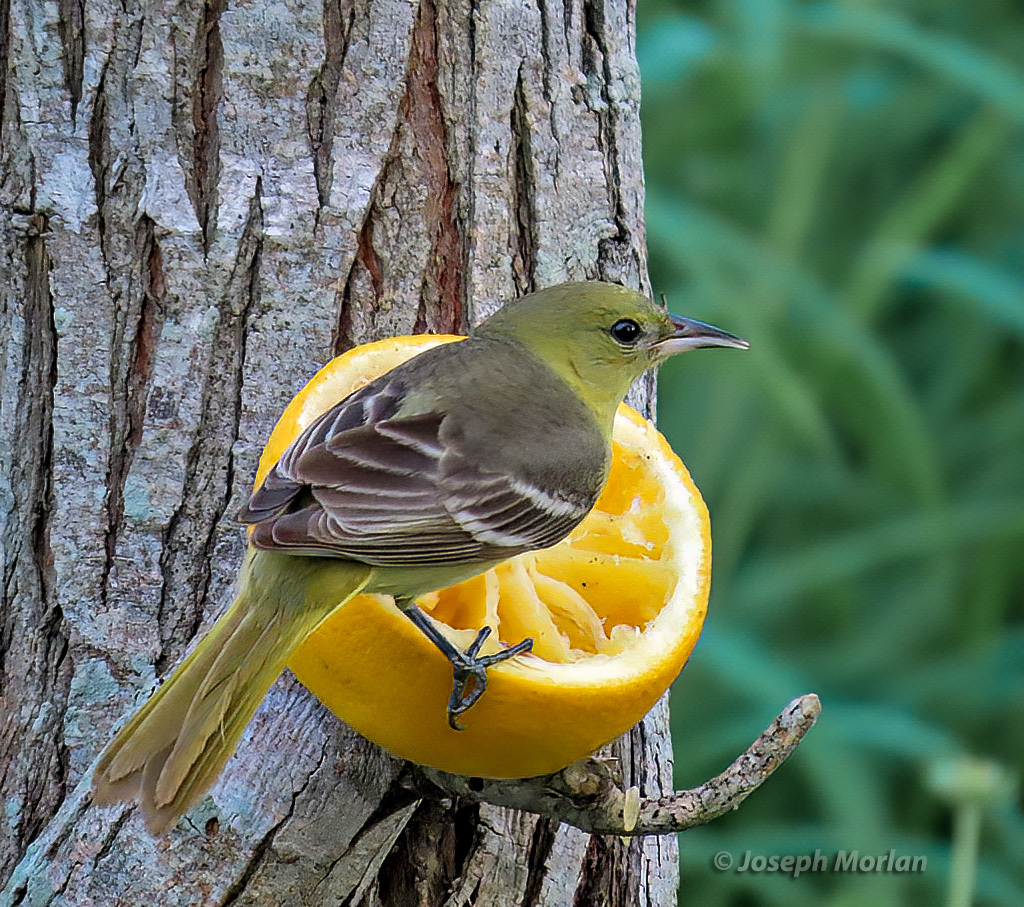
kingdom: Animalia
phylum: Chordata
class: Aves
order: Passeriformes
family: Icteridae
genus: Icterus
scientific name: Icterus spurius
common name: Orchard oriole
